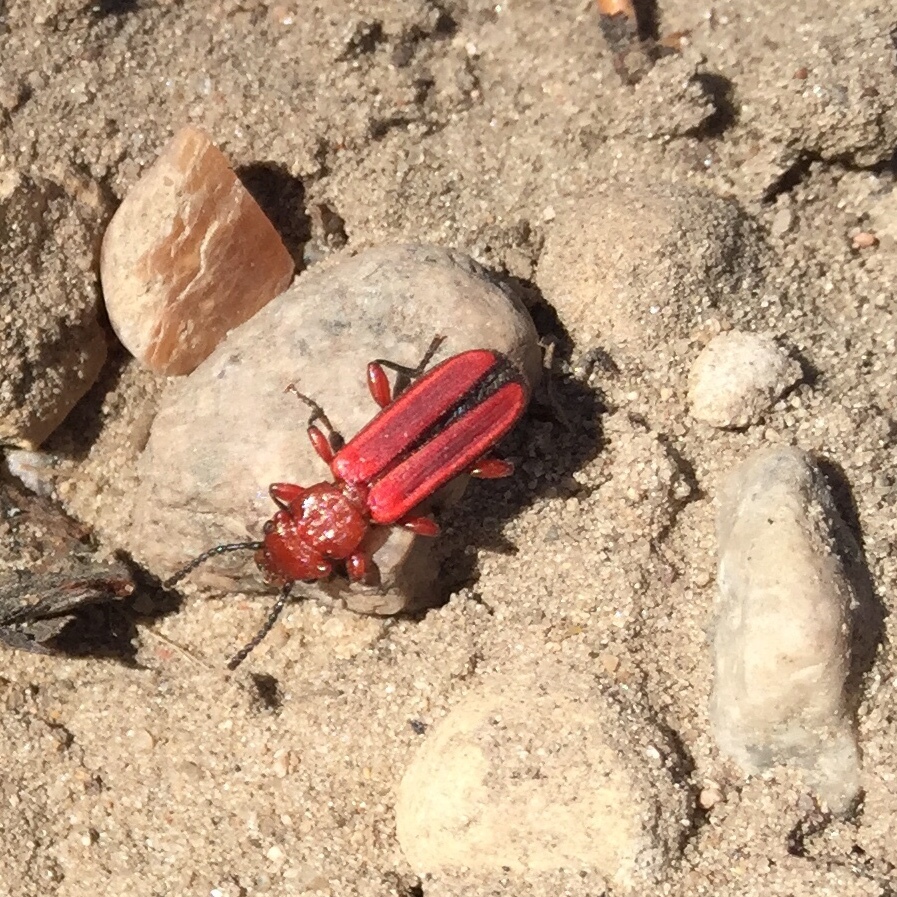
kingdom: Animalia
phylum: Arthropoda
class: Insecta
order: Coleoptera
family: Cucujidae
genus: Cucujus
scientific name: Cucujus clavipes
